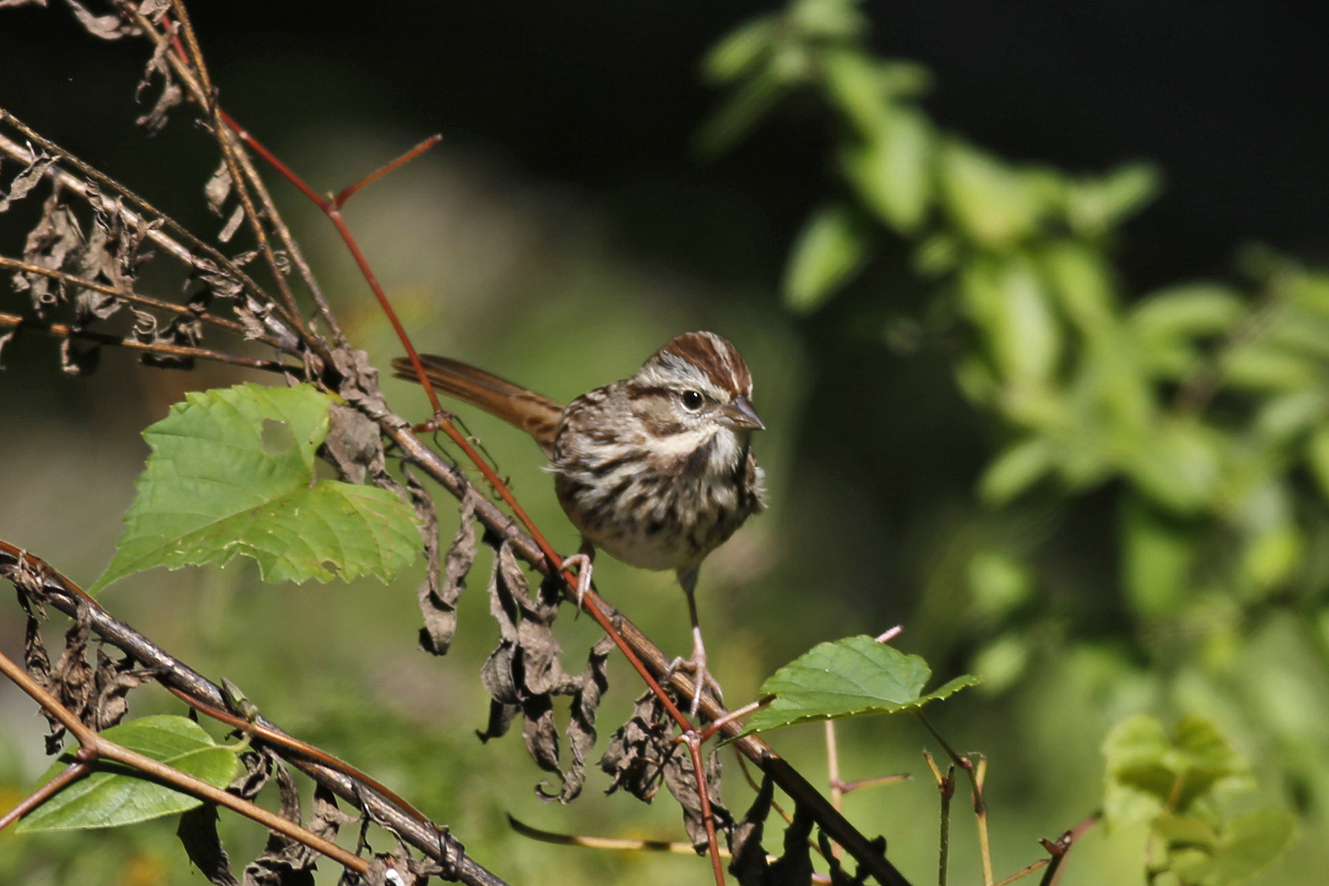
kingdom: Animalia
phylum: Chordata
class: Aves
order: Passeriformes
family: Passerellidae
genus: Melospiza
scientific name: Melospiza melodia
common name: Song sparrow
